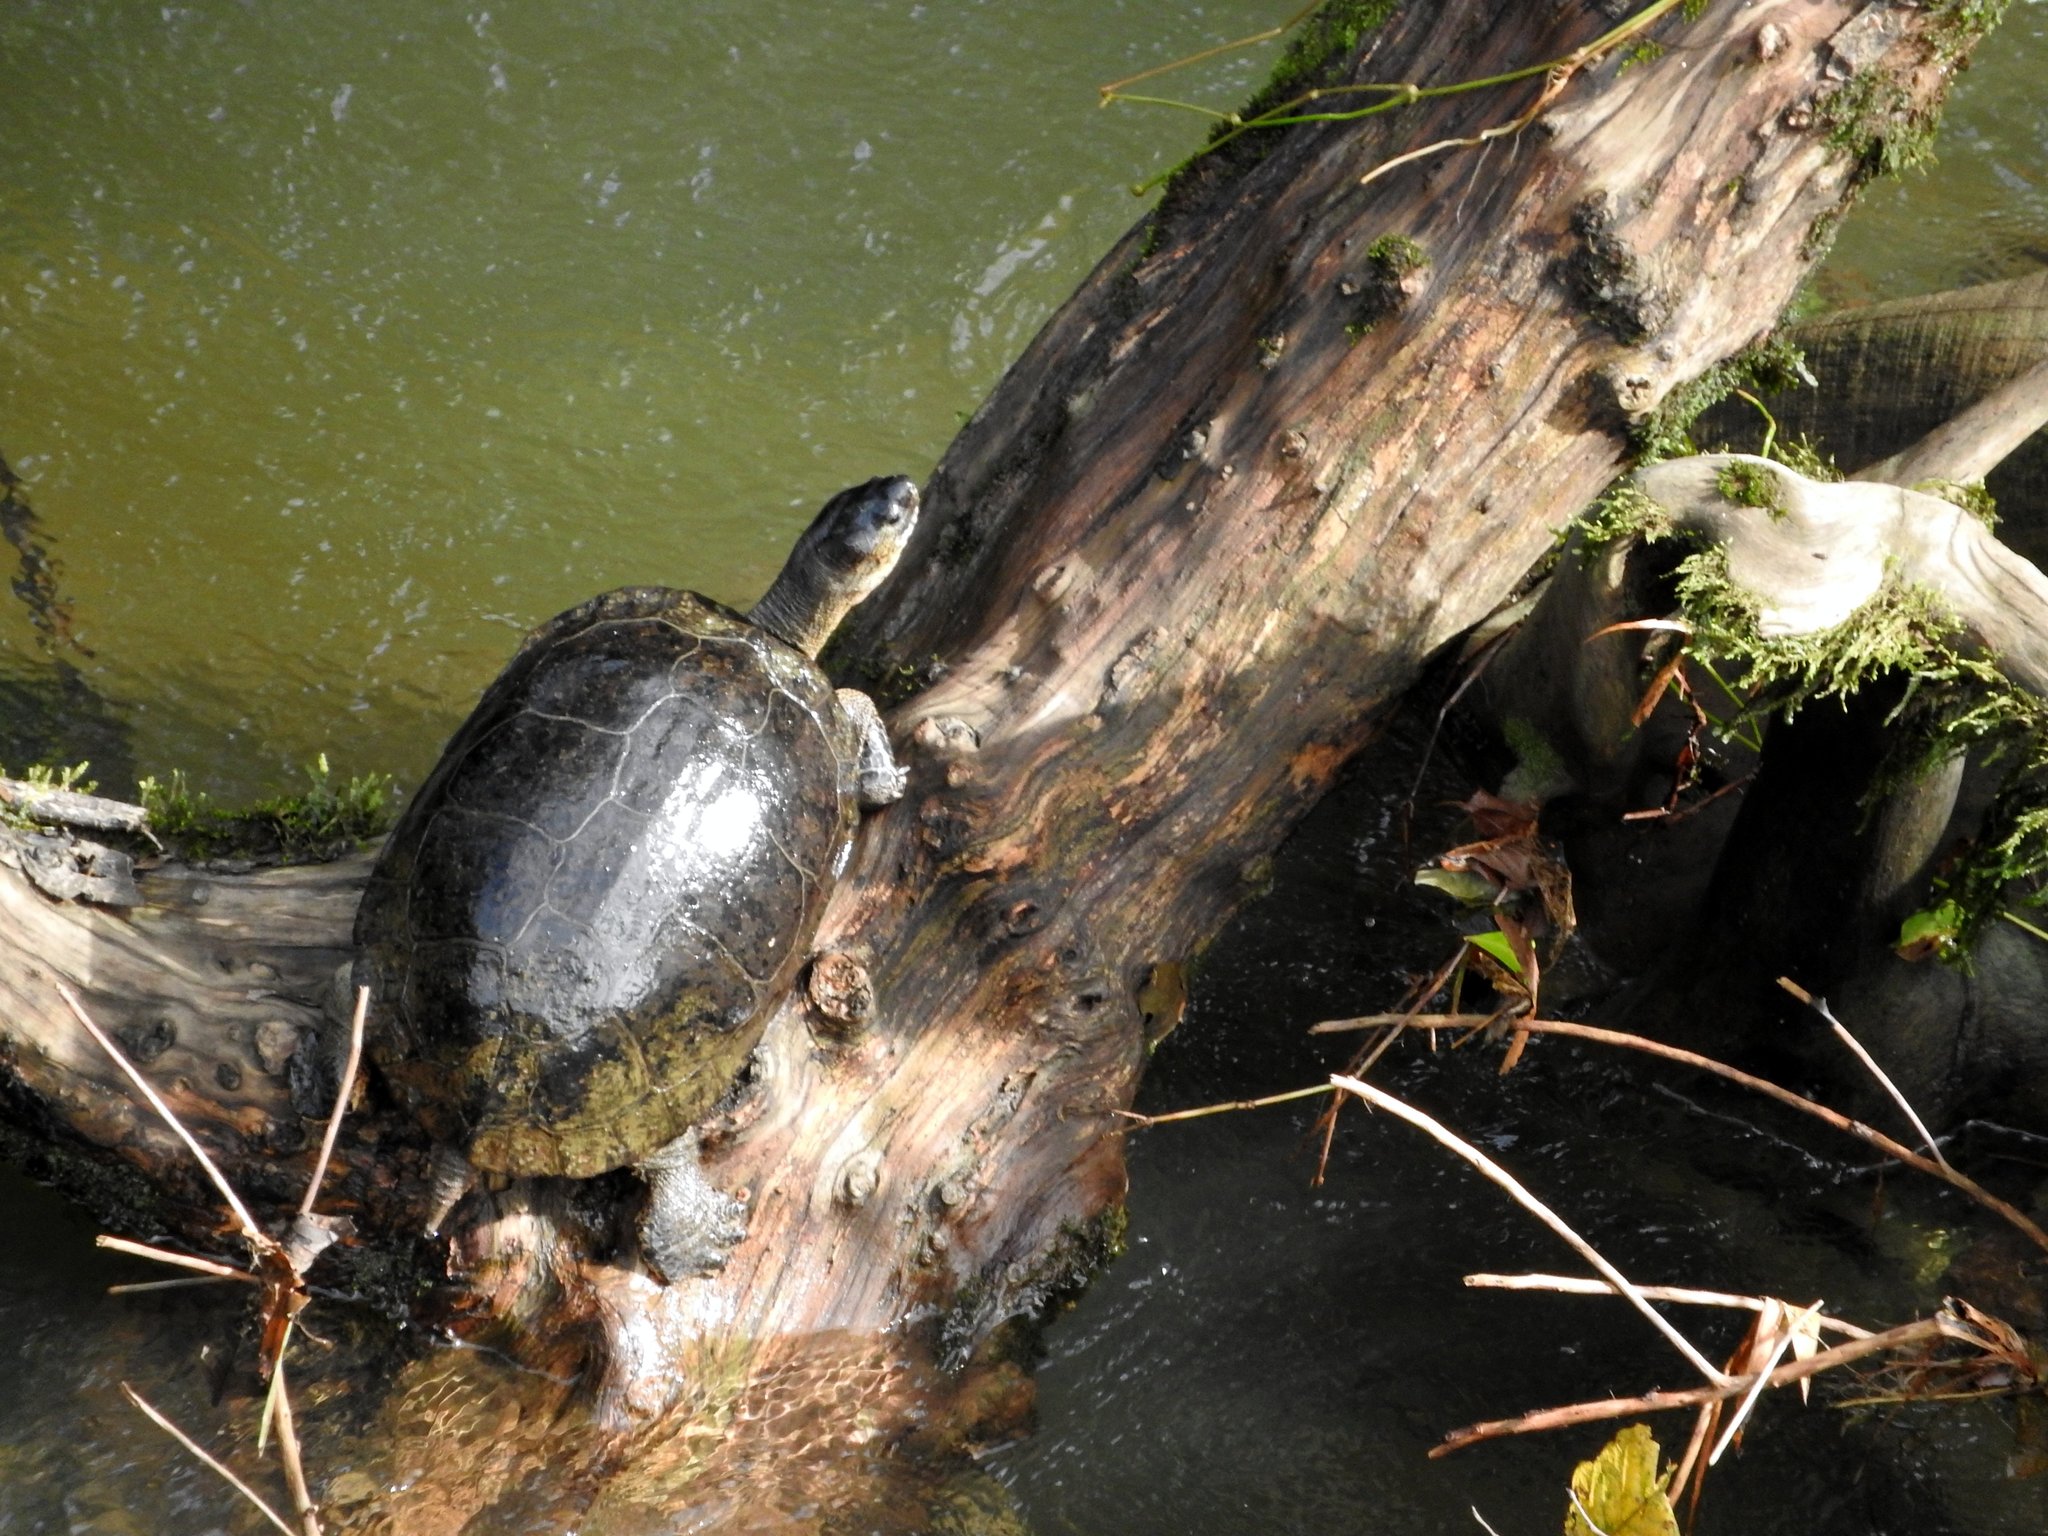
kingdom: Animalia
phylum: Chordata
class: Testudines
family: Geoemydidae
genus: Rhinoclemmys
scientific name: Rhinoclemmys funerea
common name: Black wood turtle
